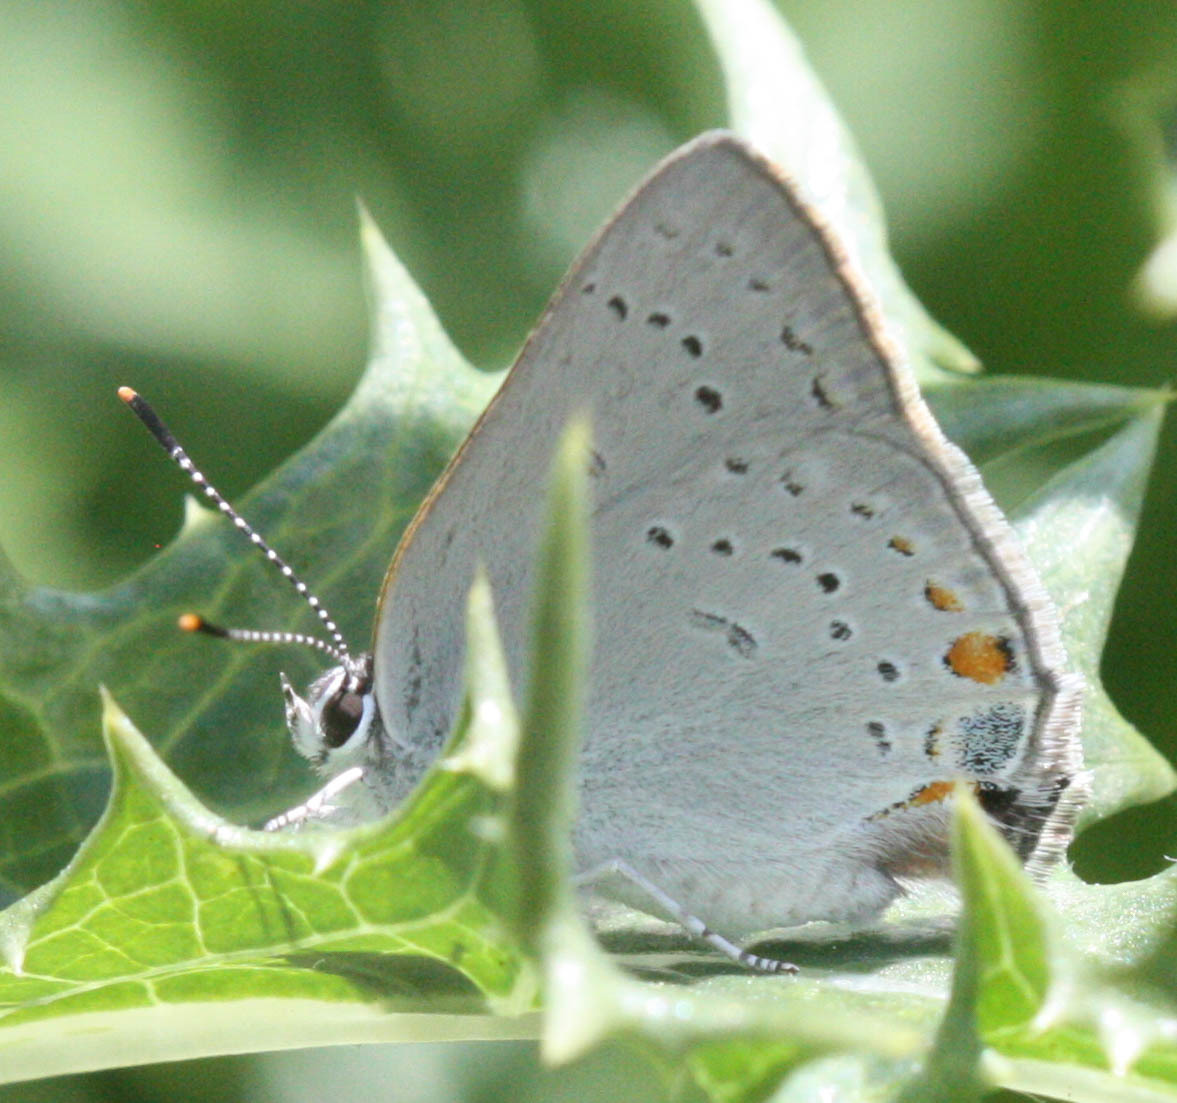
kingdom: Animalia
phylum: Arthropoda
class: Insecta
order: Lepidoptera
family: Lycaenidae
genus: Strymon
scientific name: Strymon acadica
